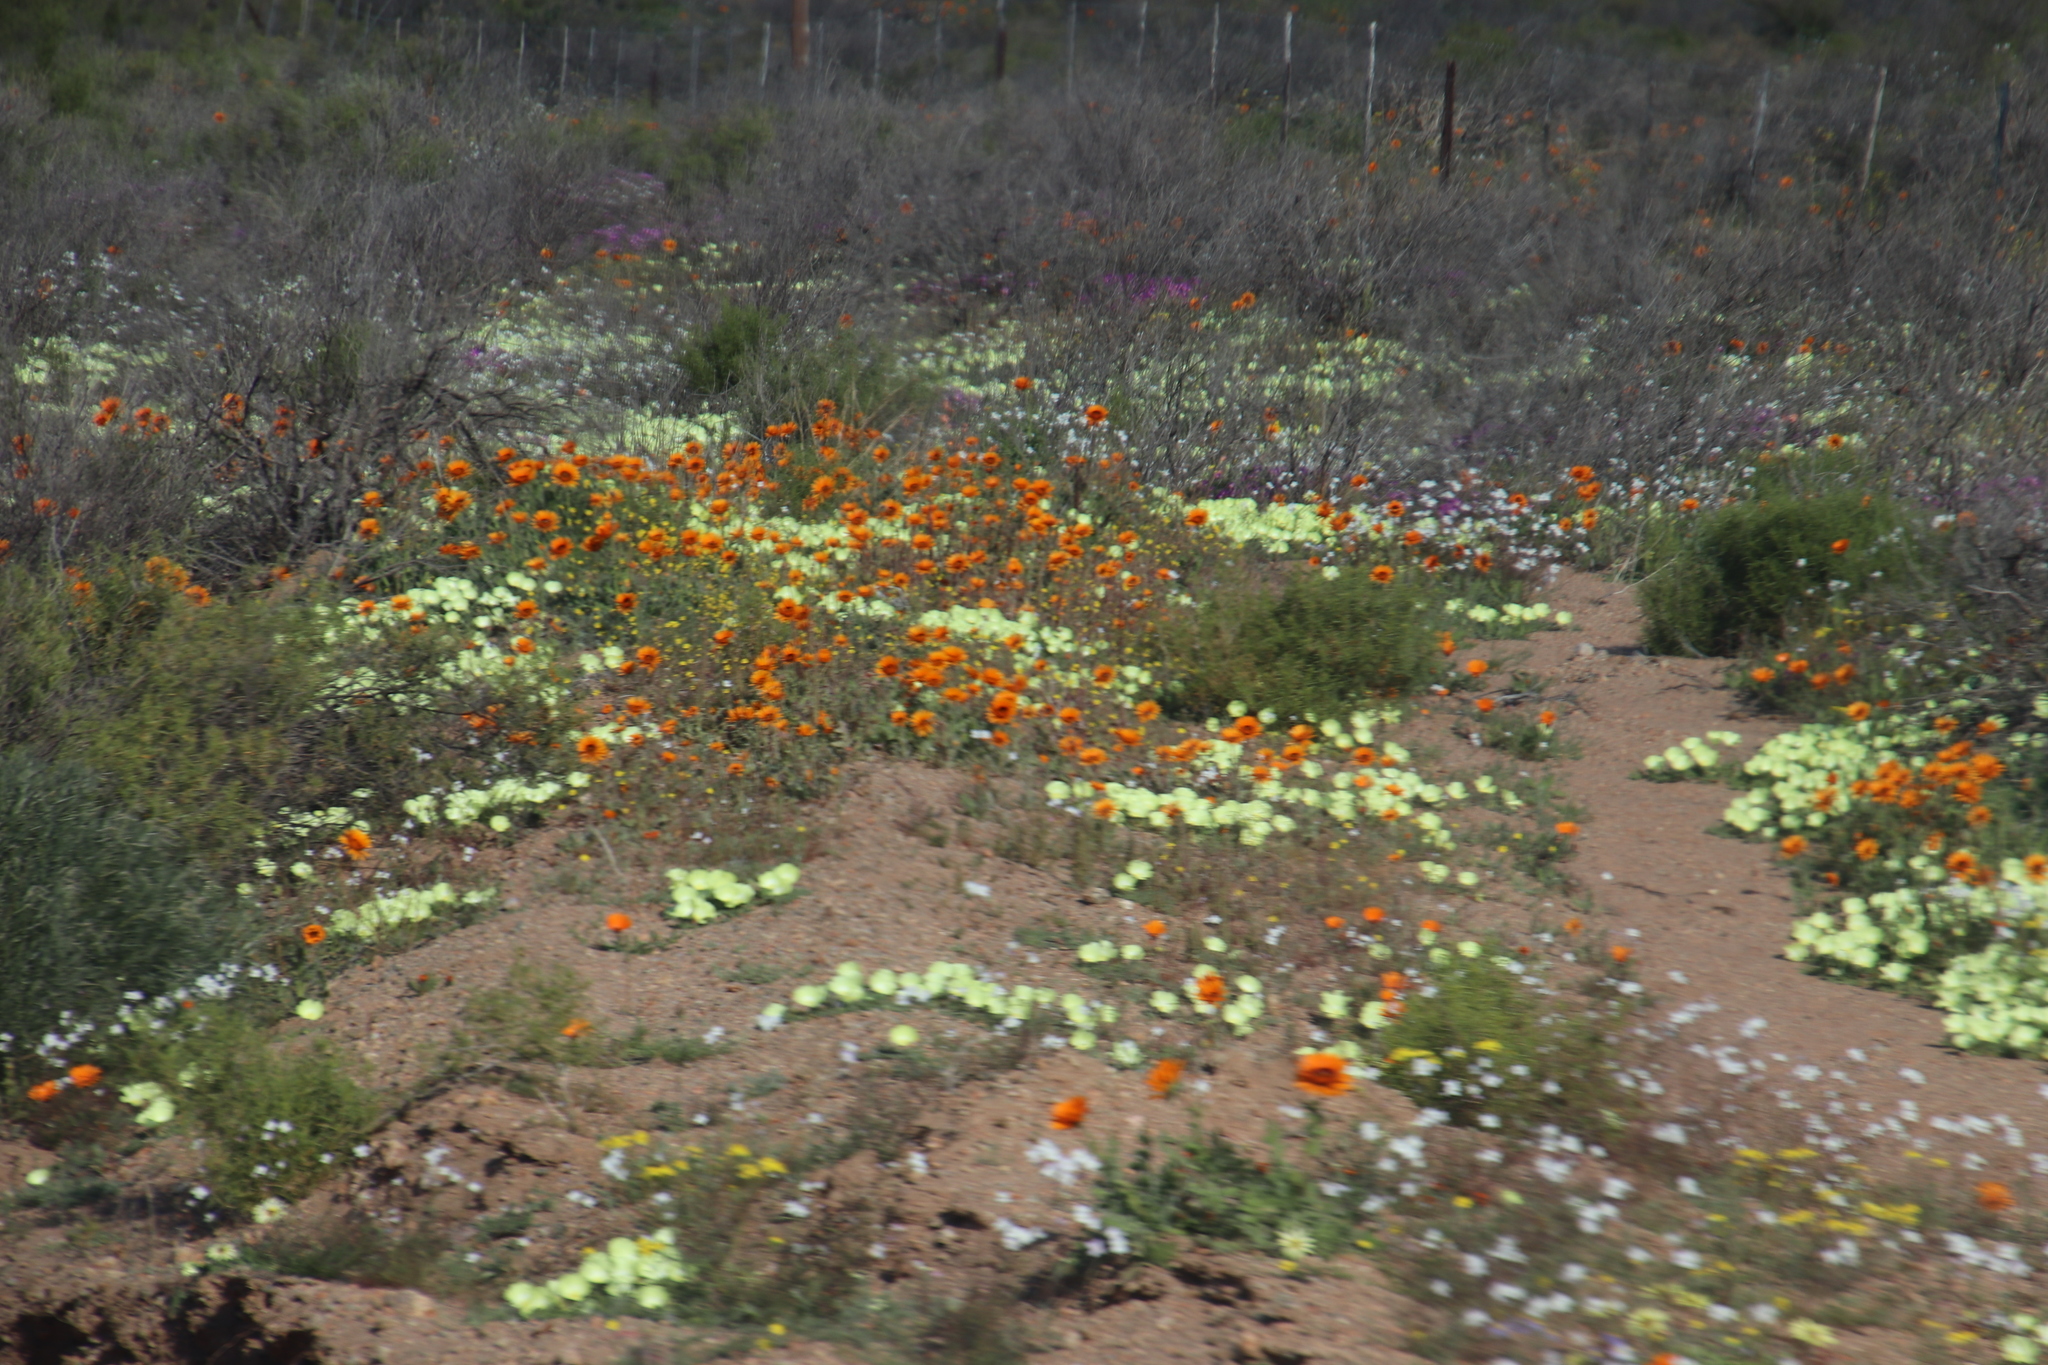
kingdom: Plantae
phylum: Tracheophyta
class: Magnoliopsida
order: Malvales
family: Neuradaceae
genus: Grielum
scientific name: Grielum humifusum
